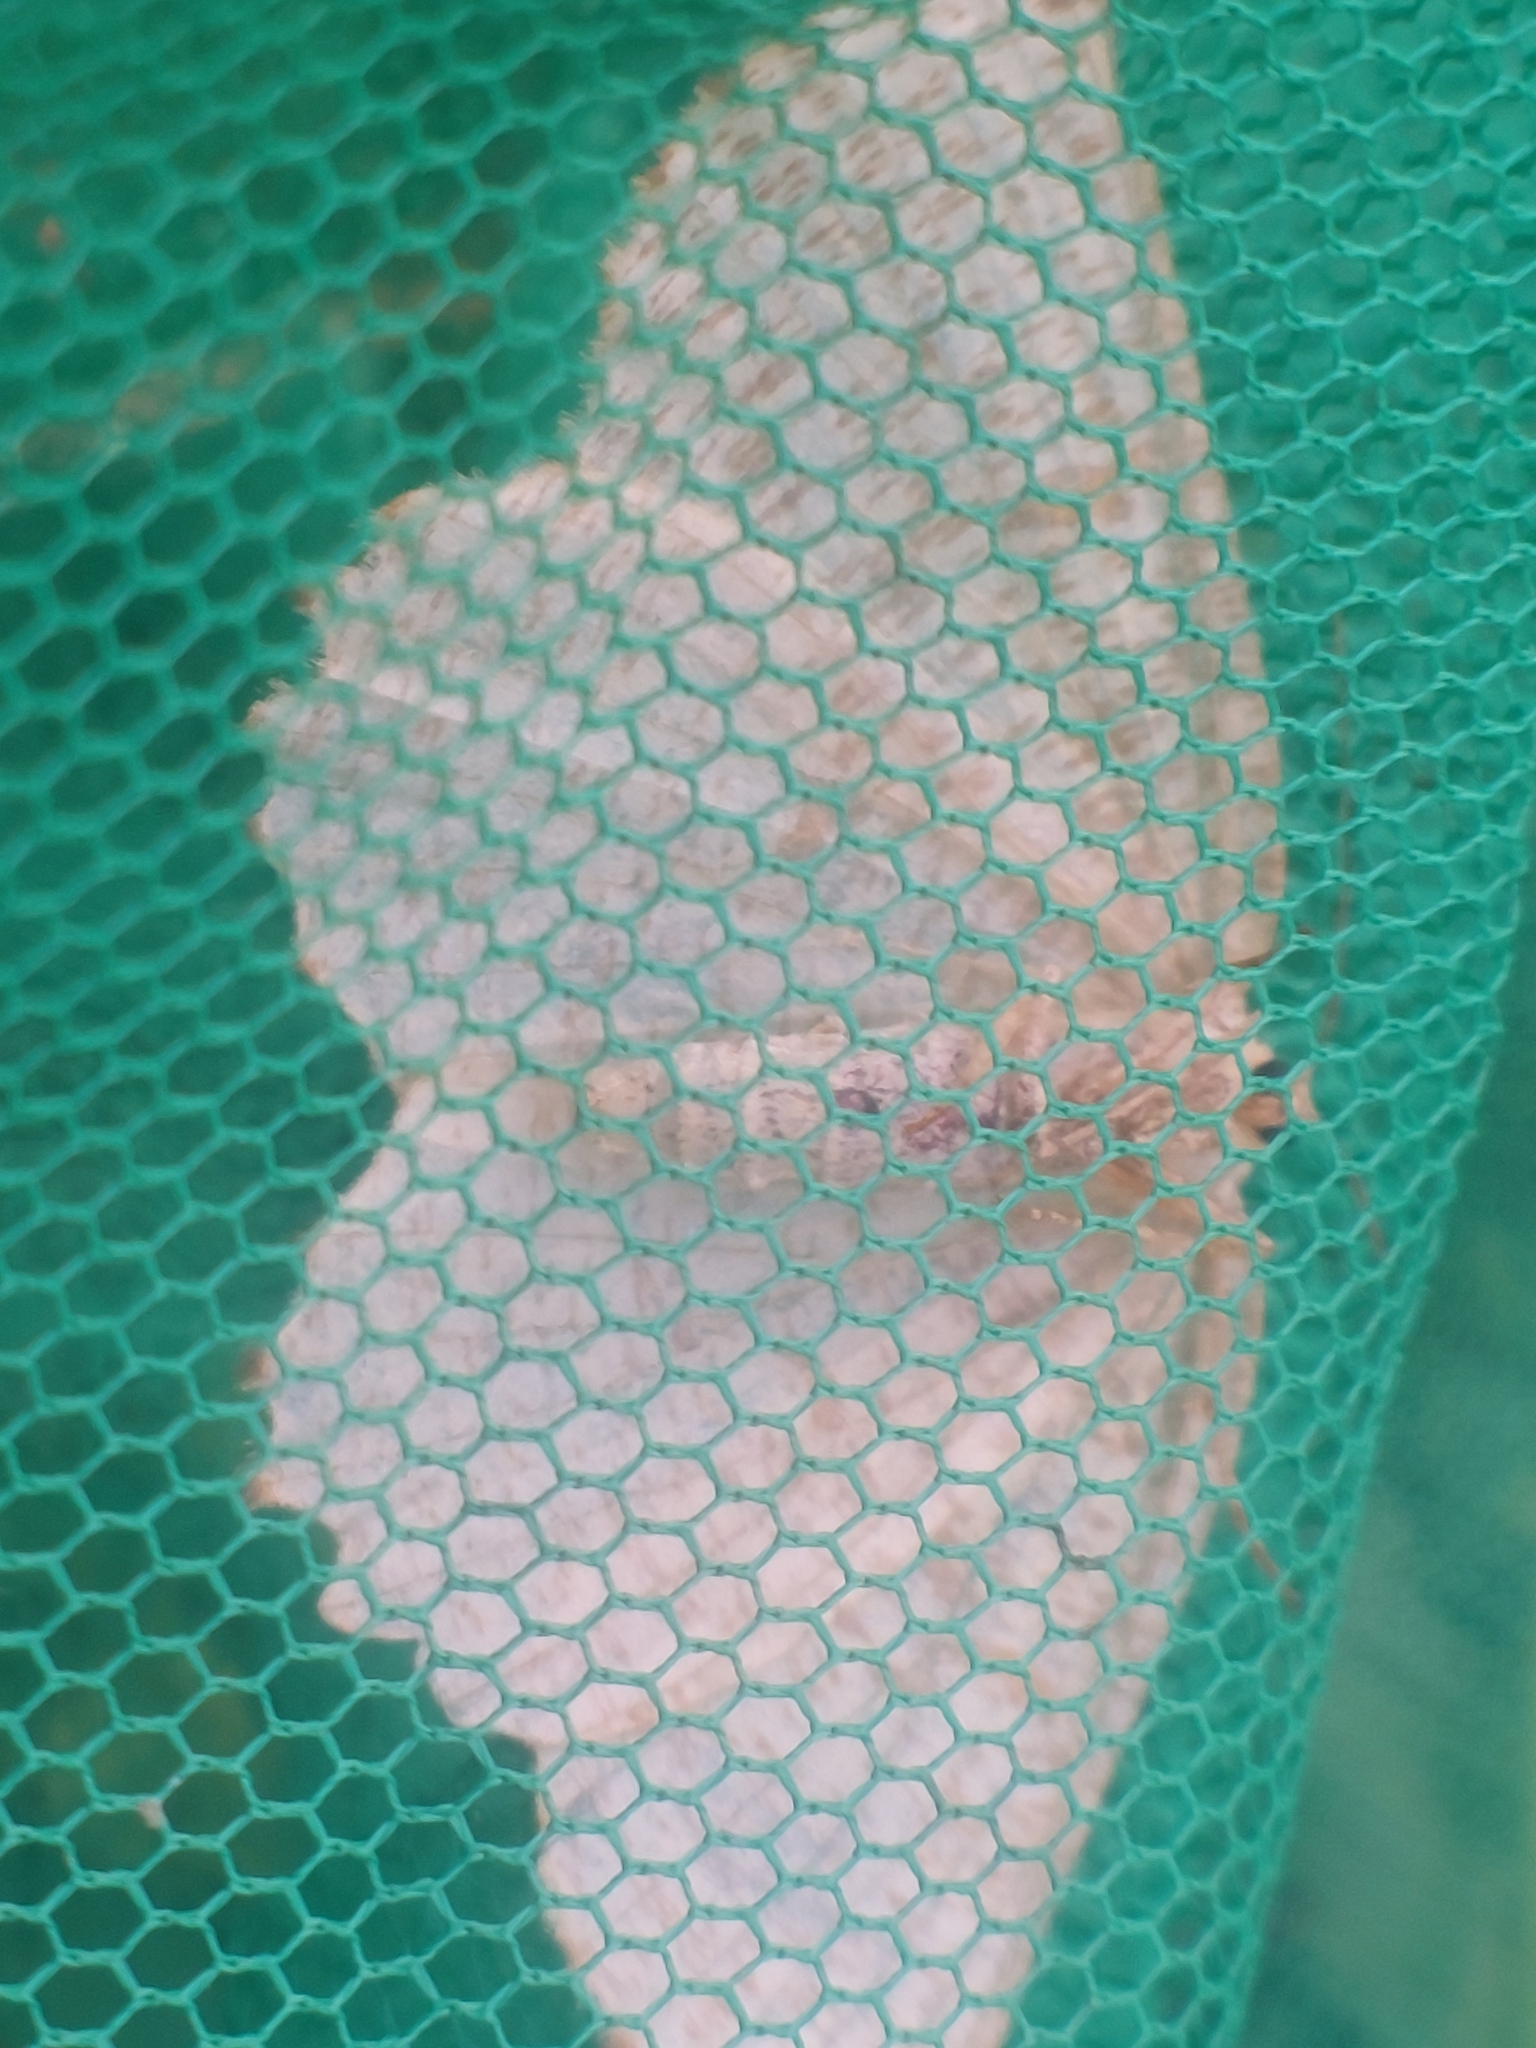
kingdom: Animalia
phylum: Arthropoda
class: Insecta
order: Lepidoptera
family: Geometridae
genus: Angerona
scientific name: Angerona prunaria
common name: Orange moth
